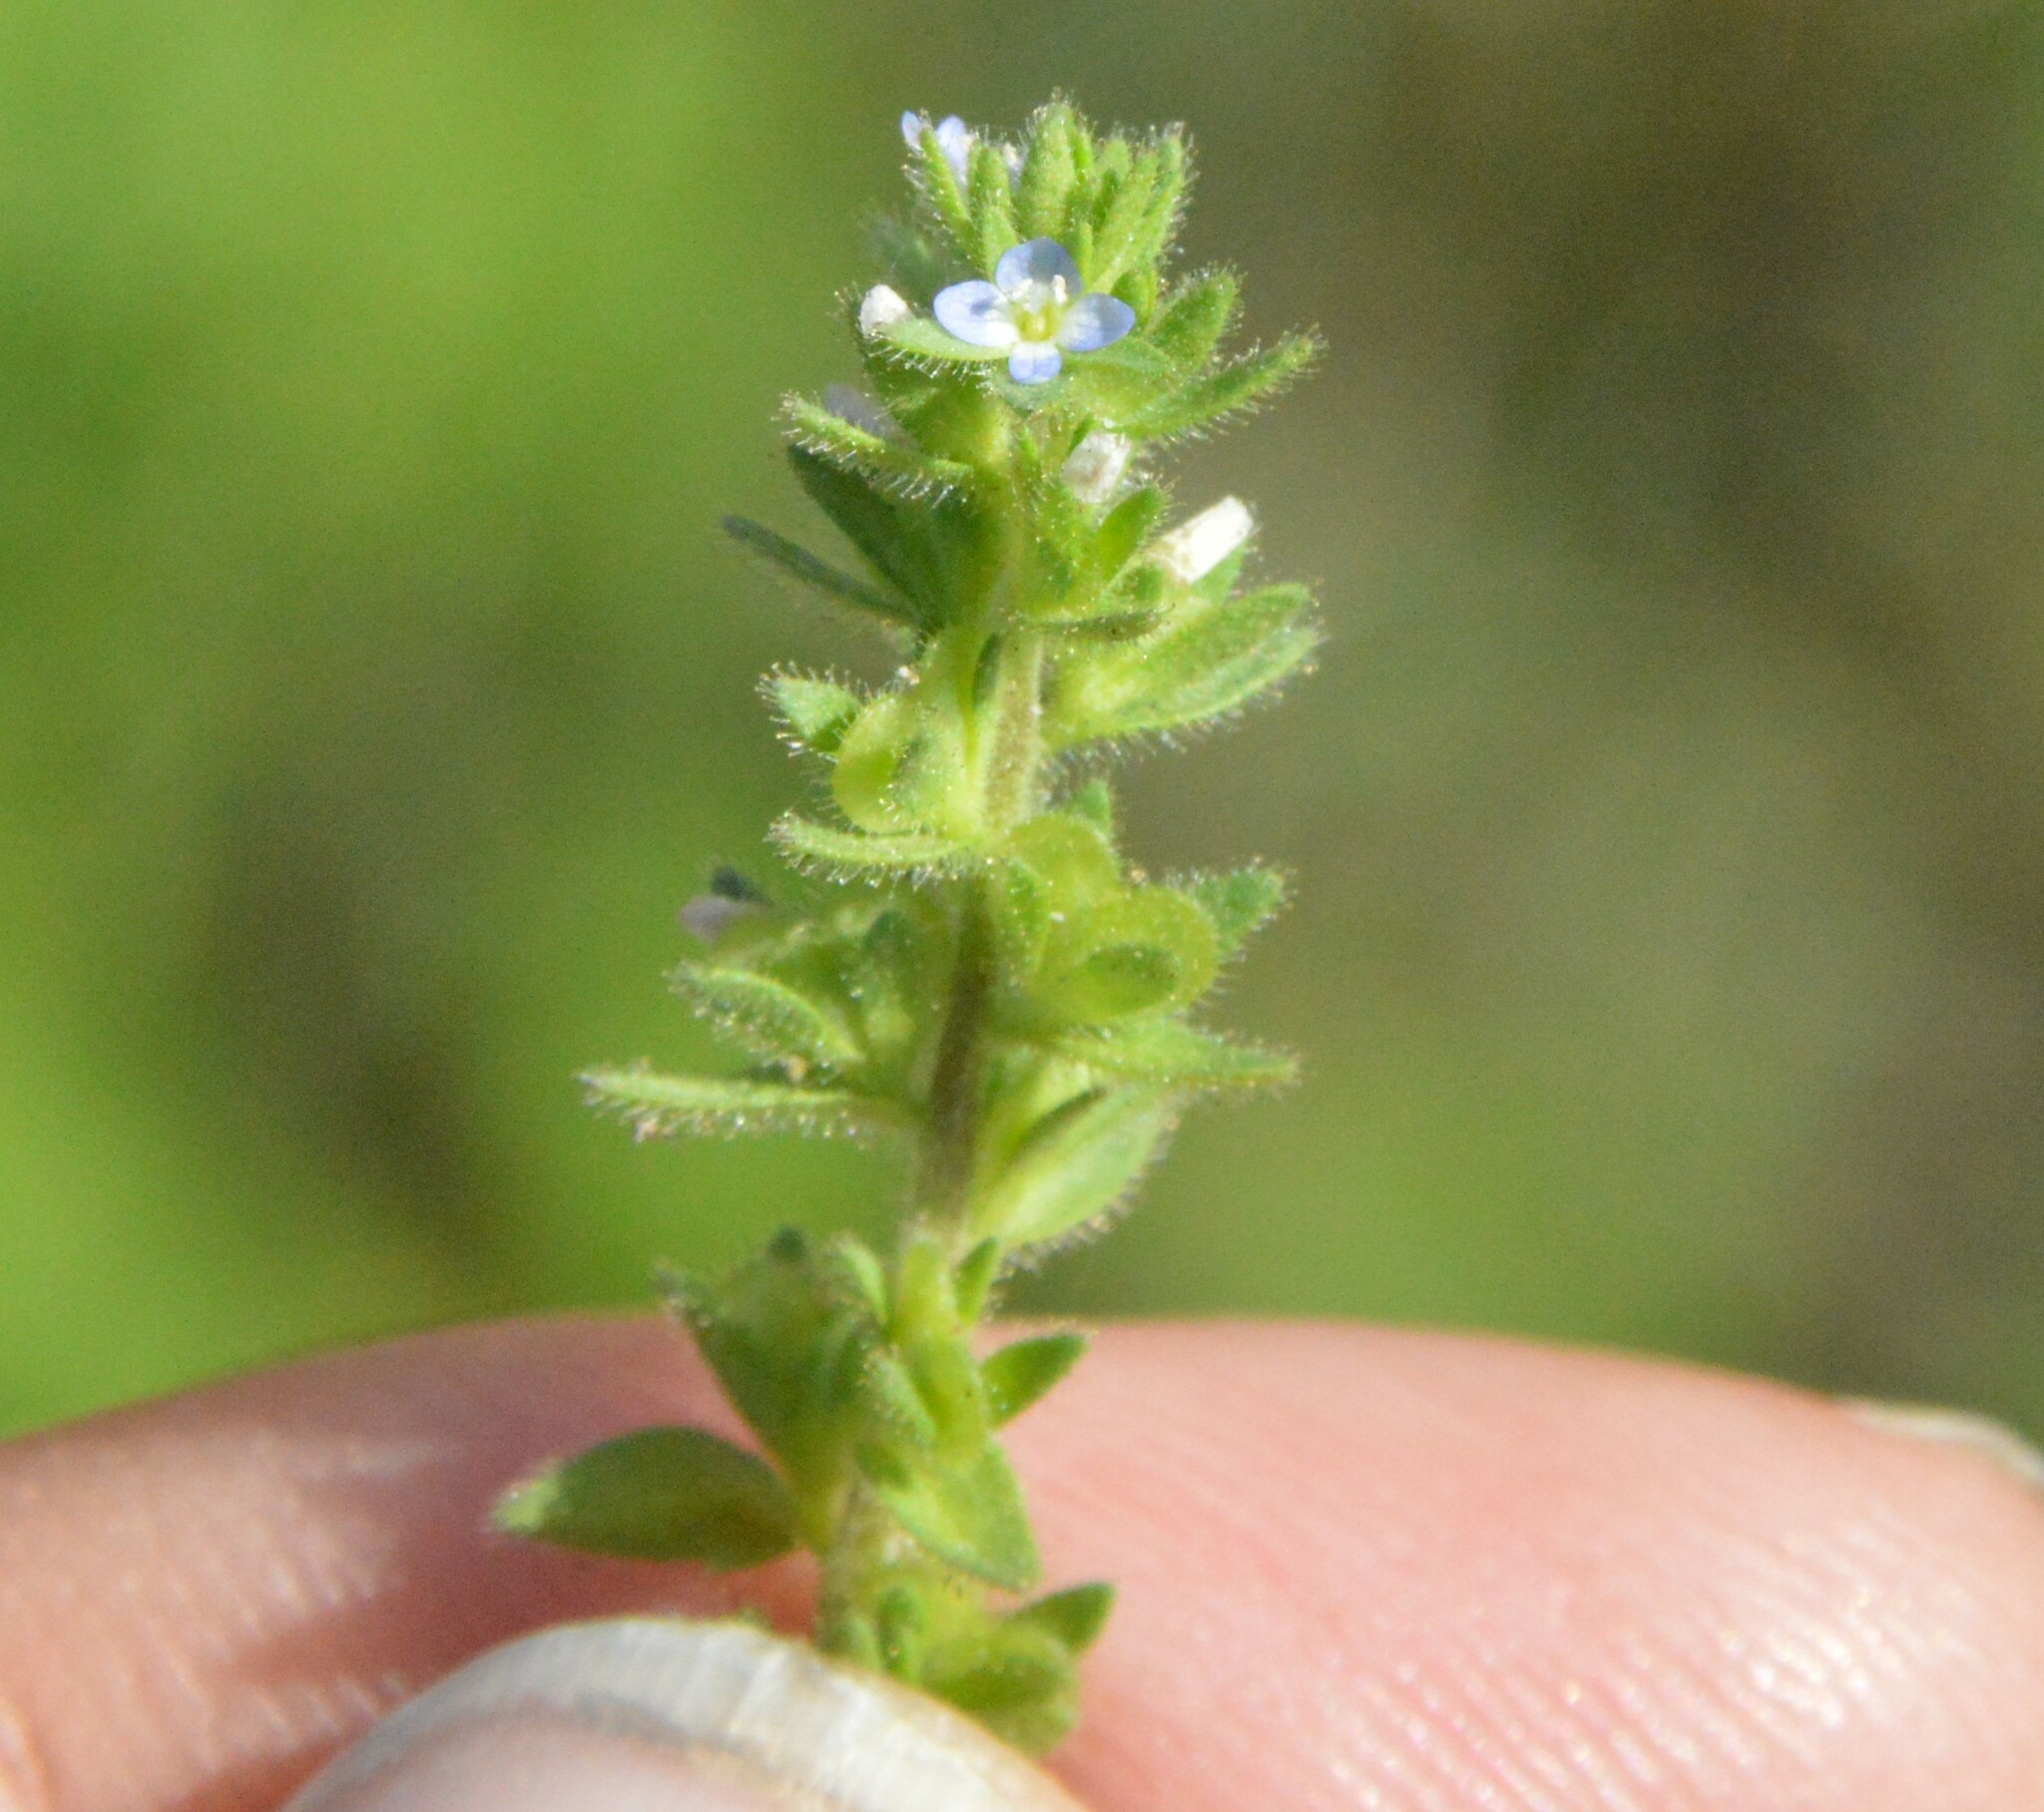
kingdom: Plantae
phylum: Tracheophyta
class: Magnoliopsida
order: Lamiales
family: Plantaginaceae
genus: Veronica
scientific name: Veronica arvensis
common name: Corn speedwell
